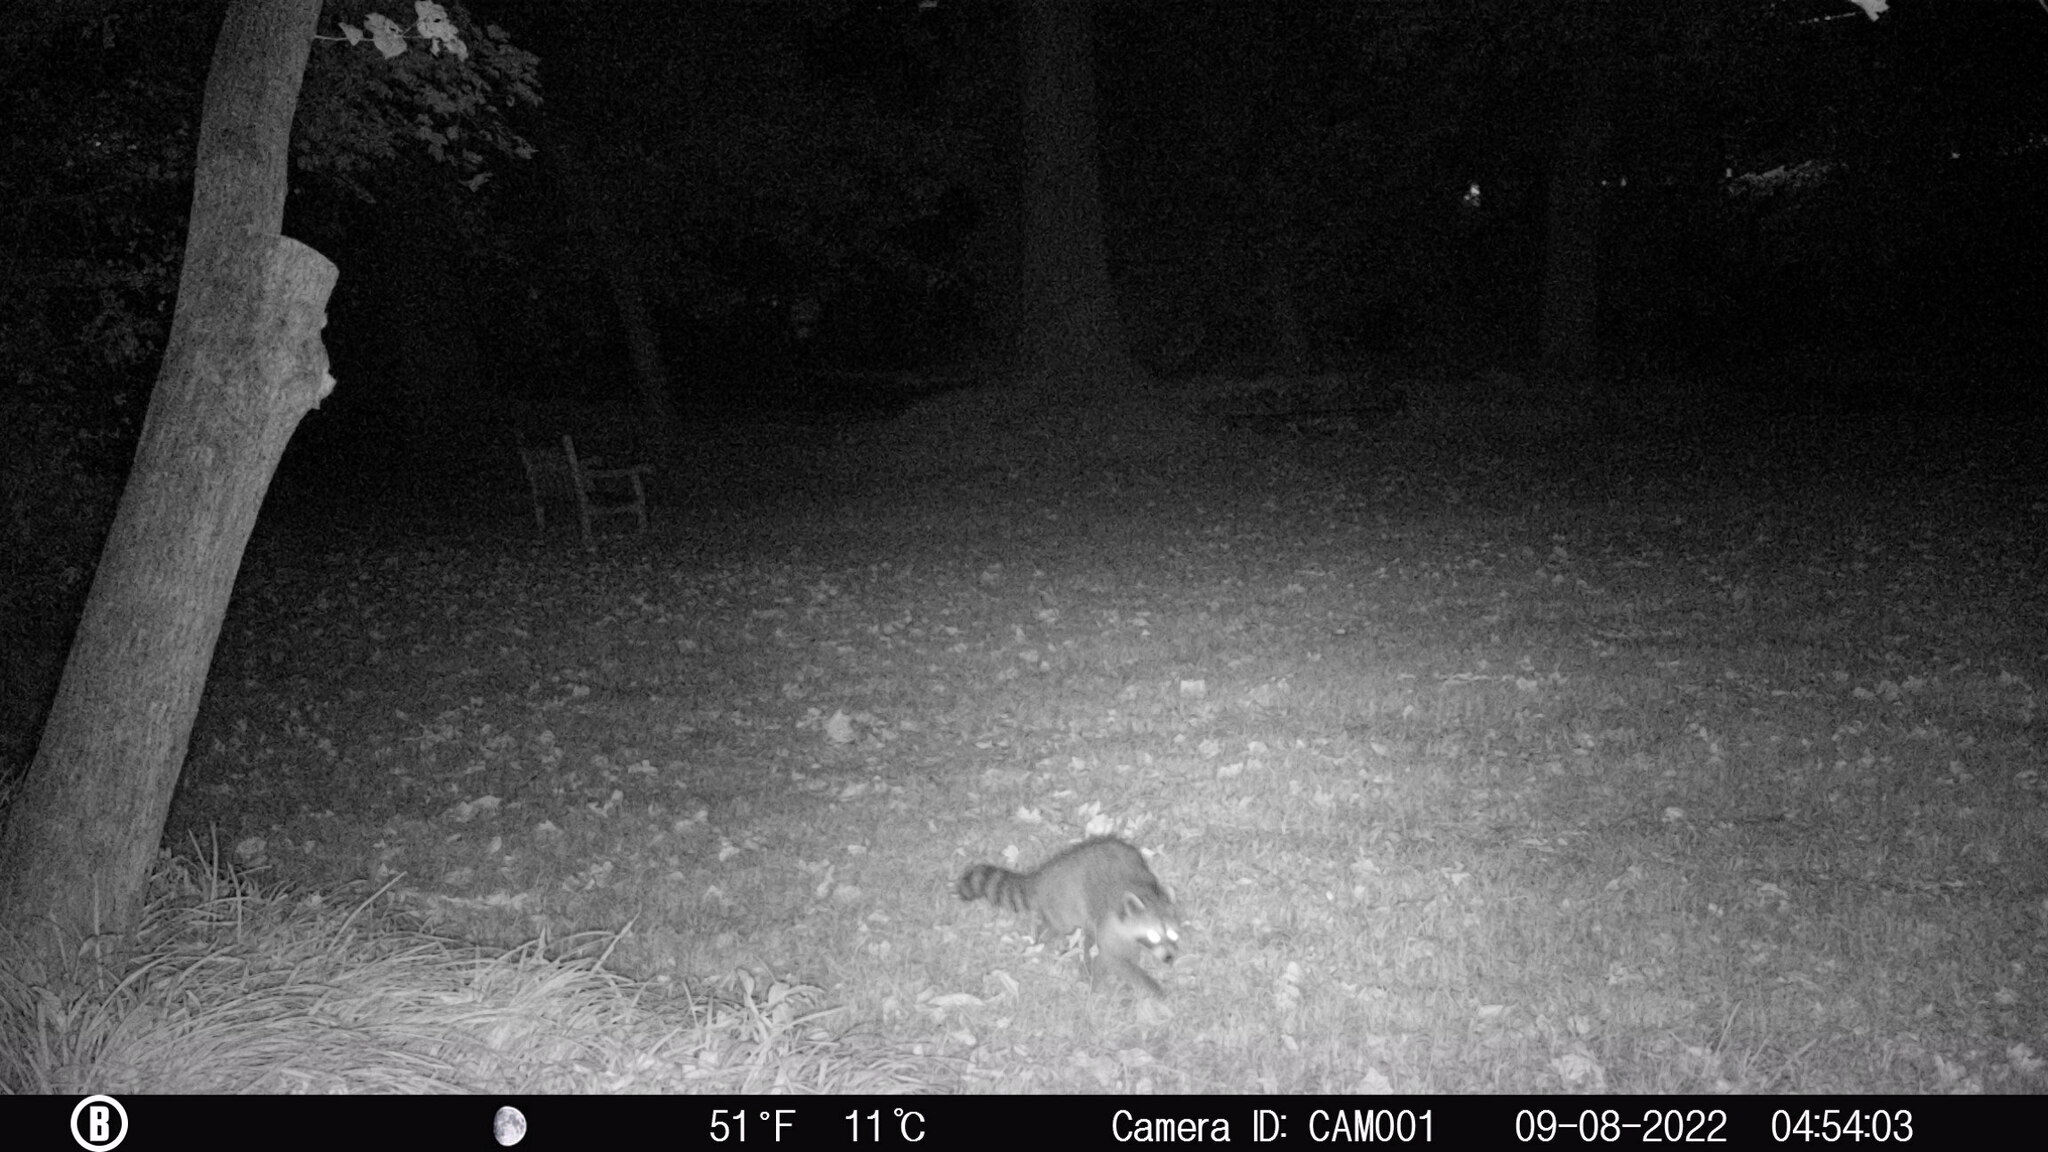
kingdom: Animalia
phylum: Chordata
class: Mammalia
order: Carnivora
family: Procyonidae
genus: Procyon
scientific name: Procyon lotor
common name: Raccoon
